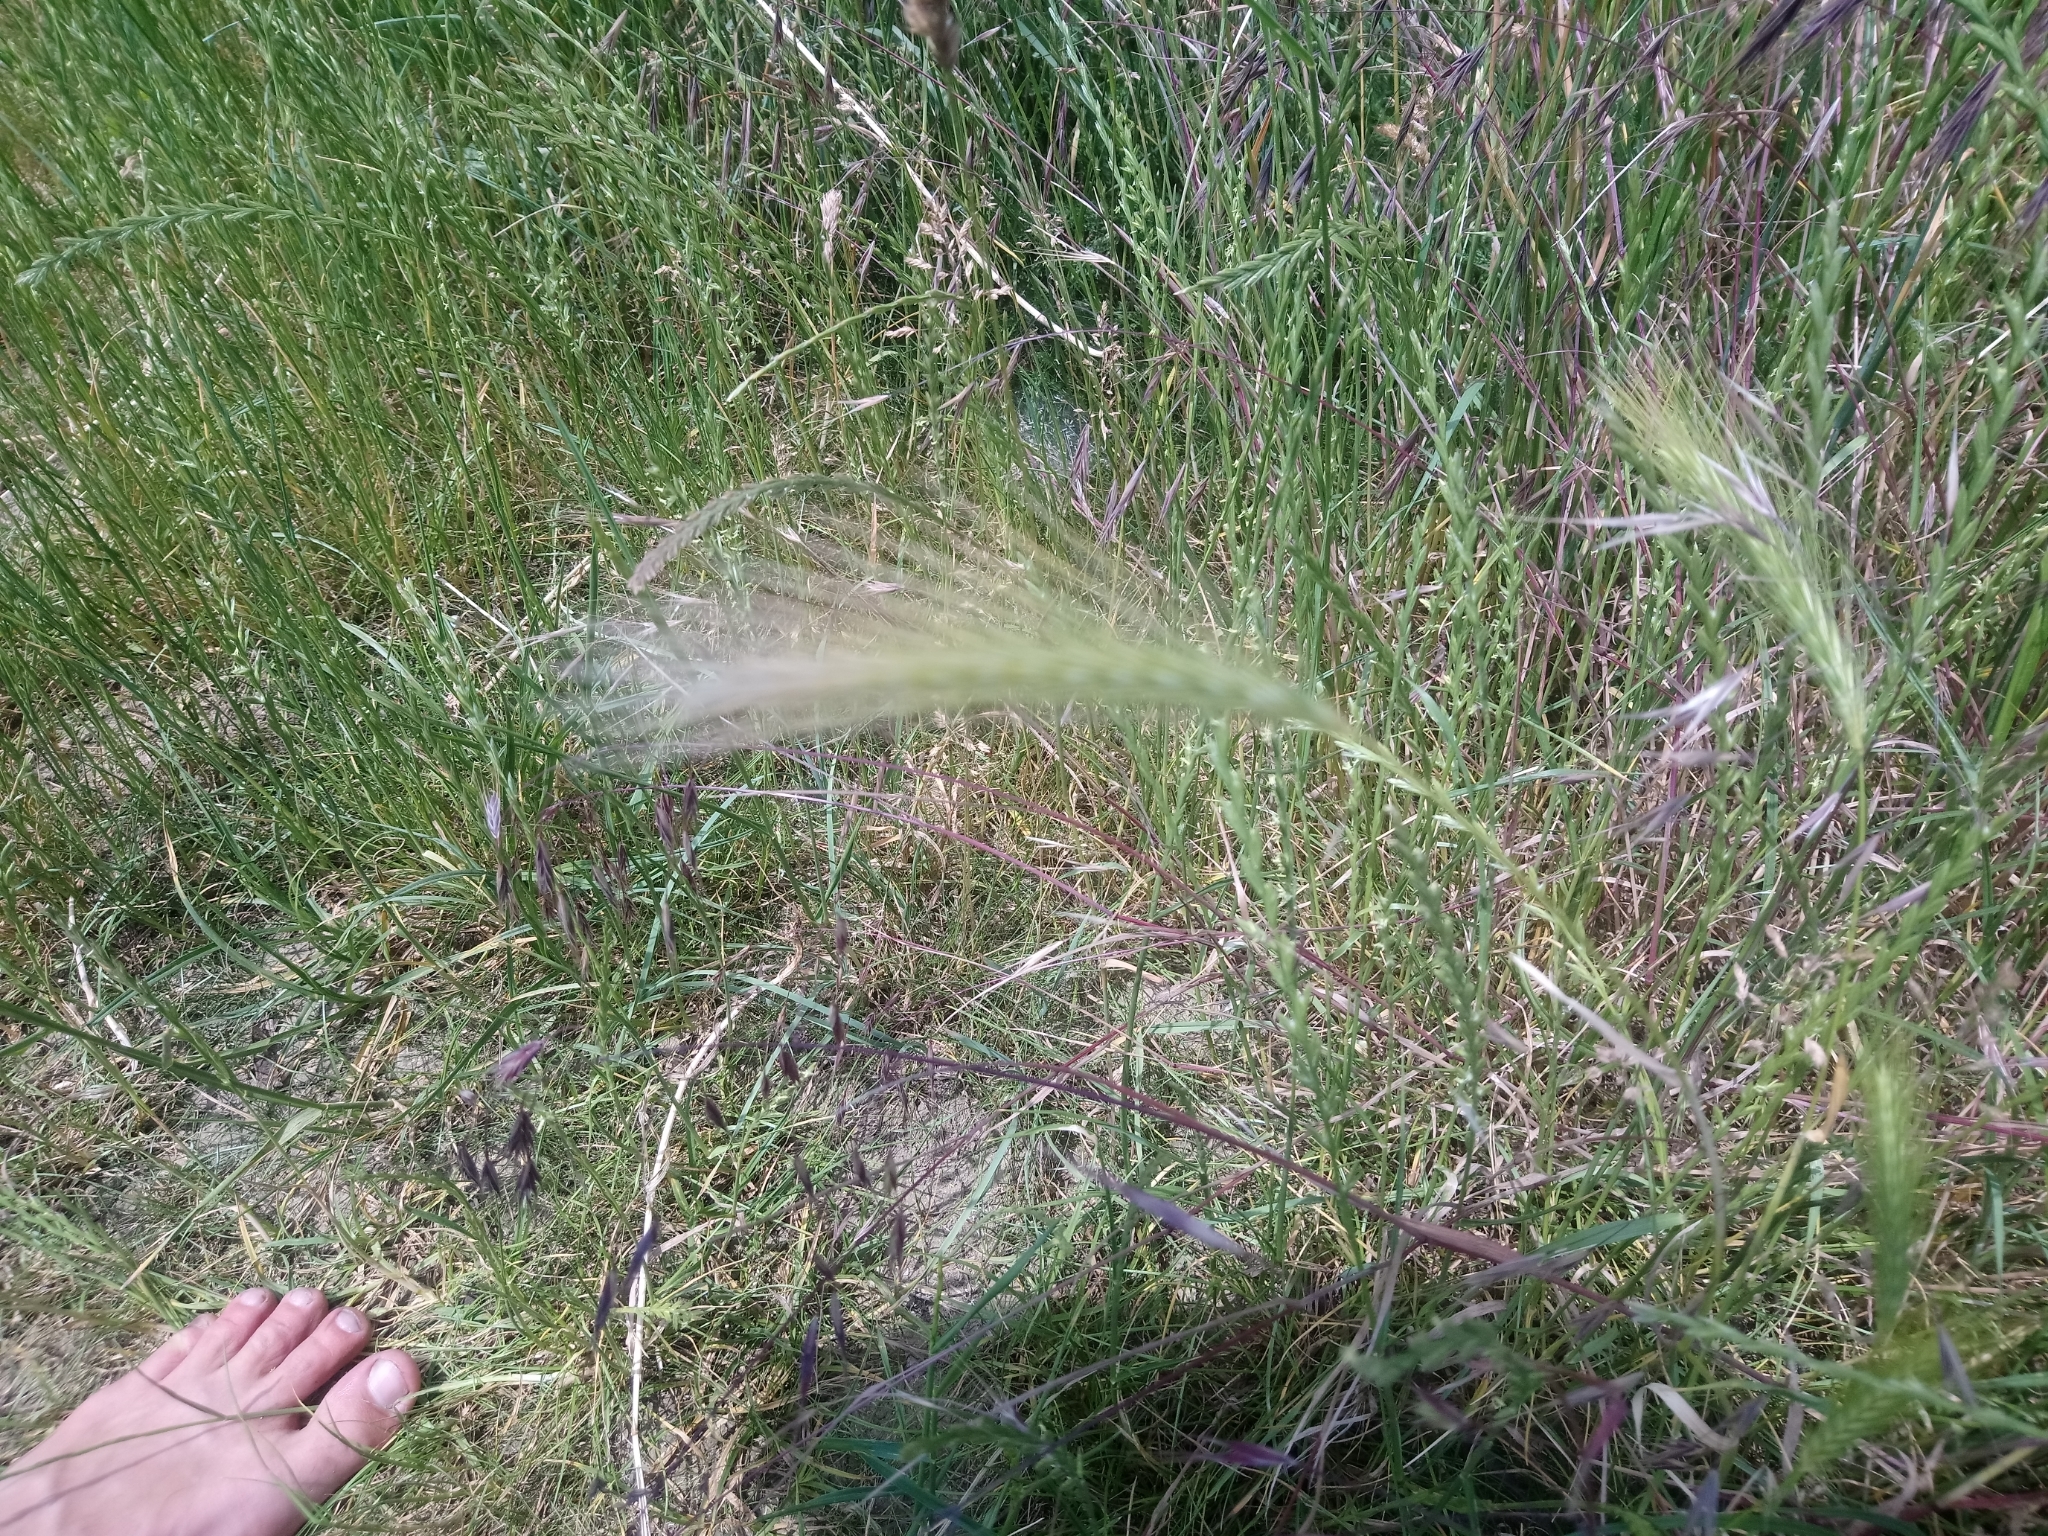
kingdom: Plantae
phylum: Tracheophyta
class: Liliopsida
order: Poales
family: Poaceae
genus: Hordeum
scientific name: Hordeum murinum
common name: Wall barley
